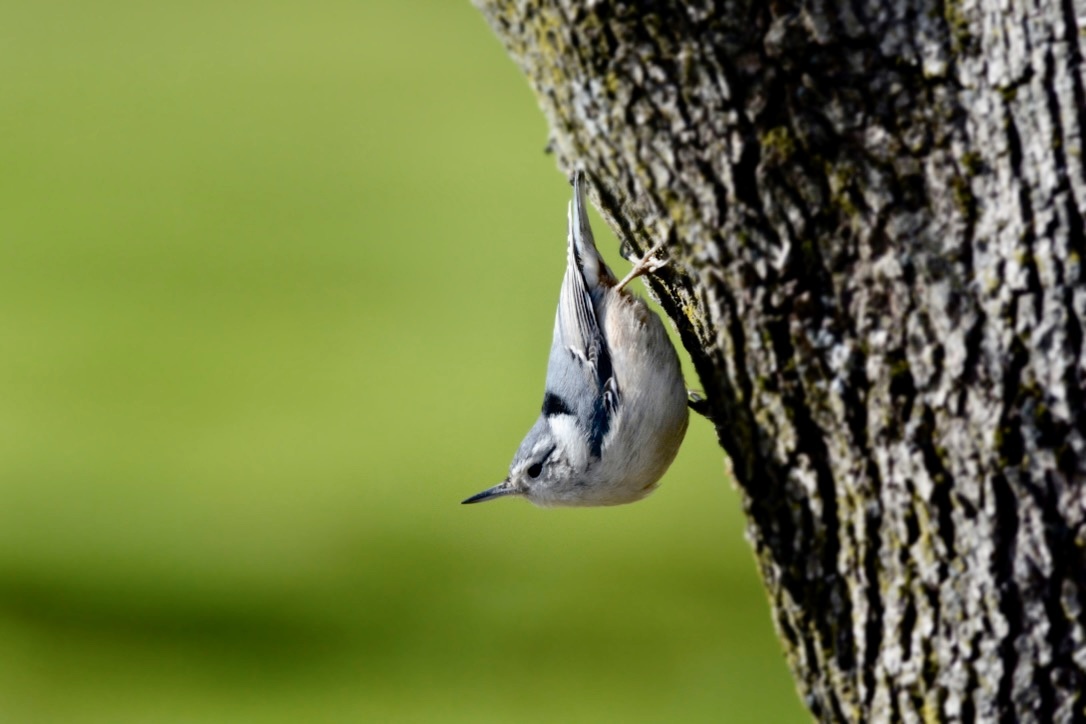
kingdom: Animalia
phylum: Chordata
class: Aves
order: Passeriformes
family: Sittidae
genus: Sitta
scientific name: Sitta carolinensis
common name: White-breasted nuthatch
